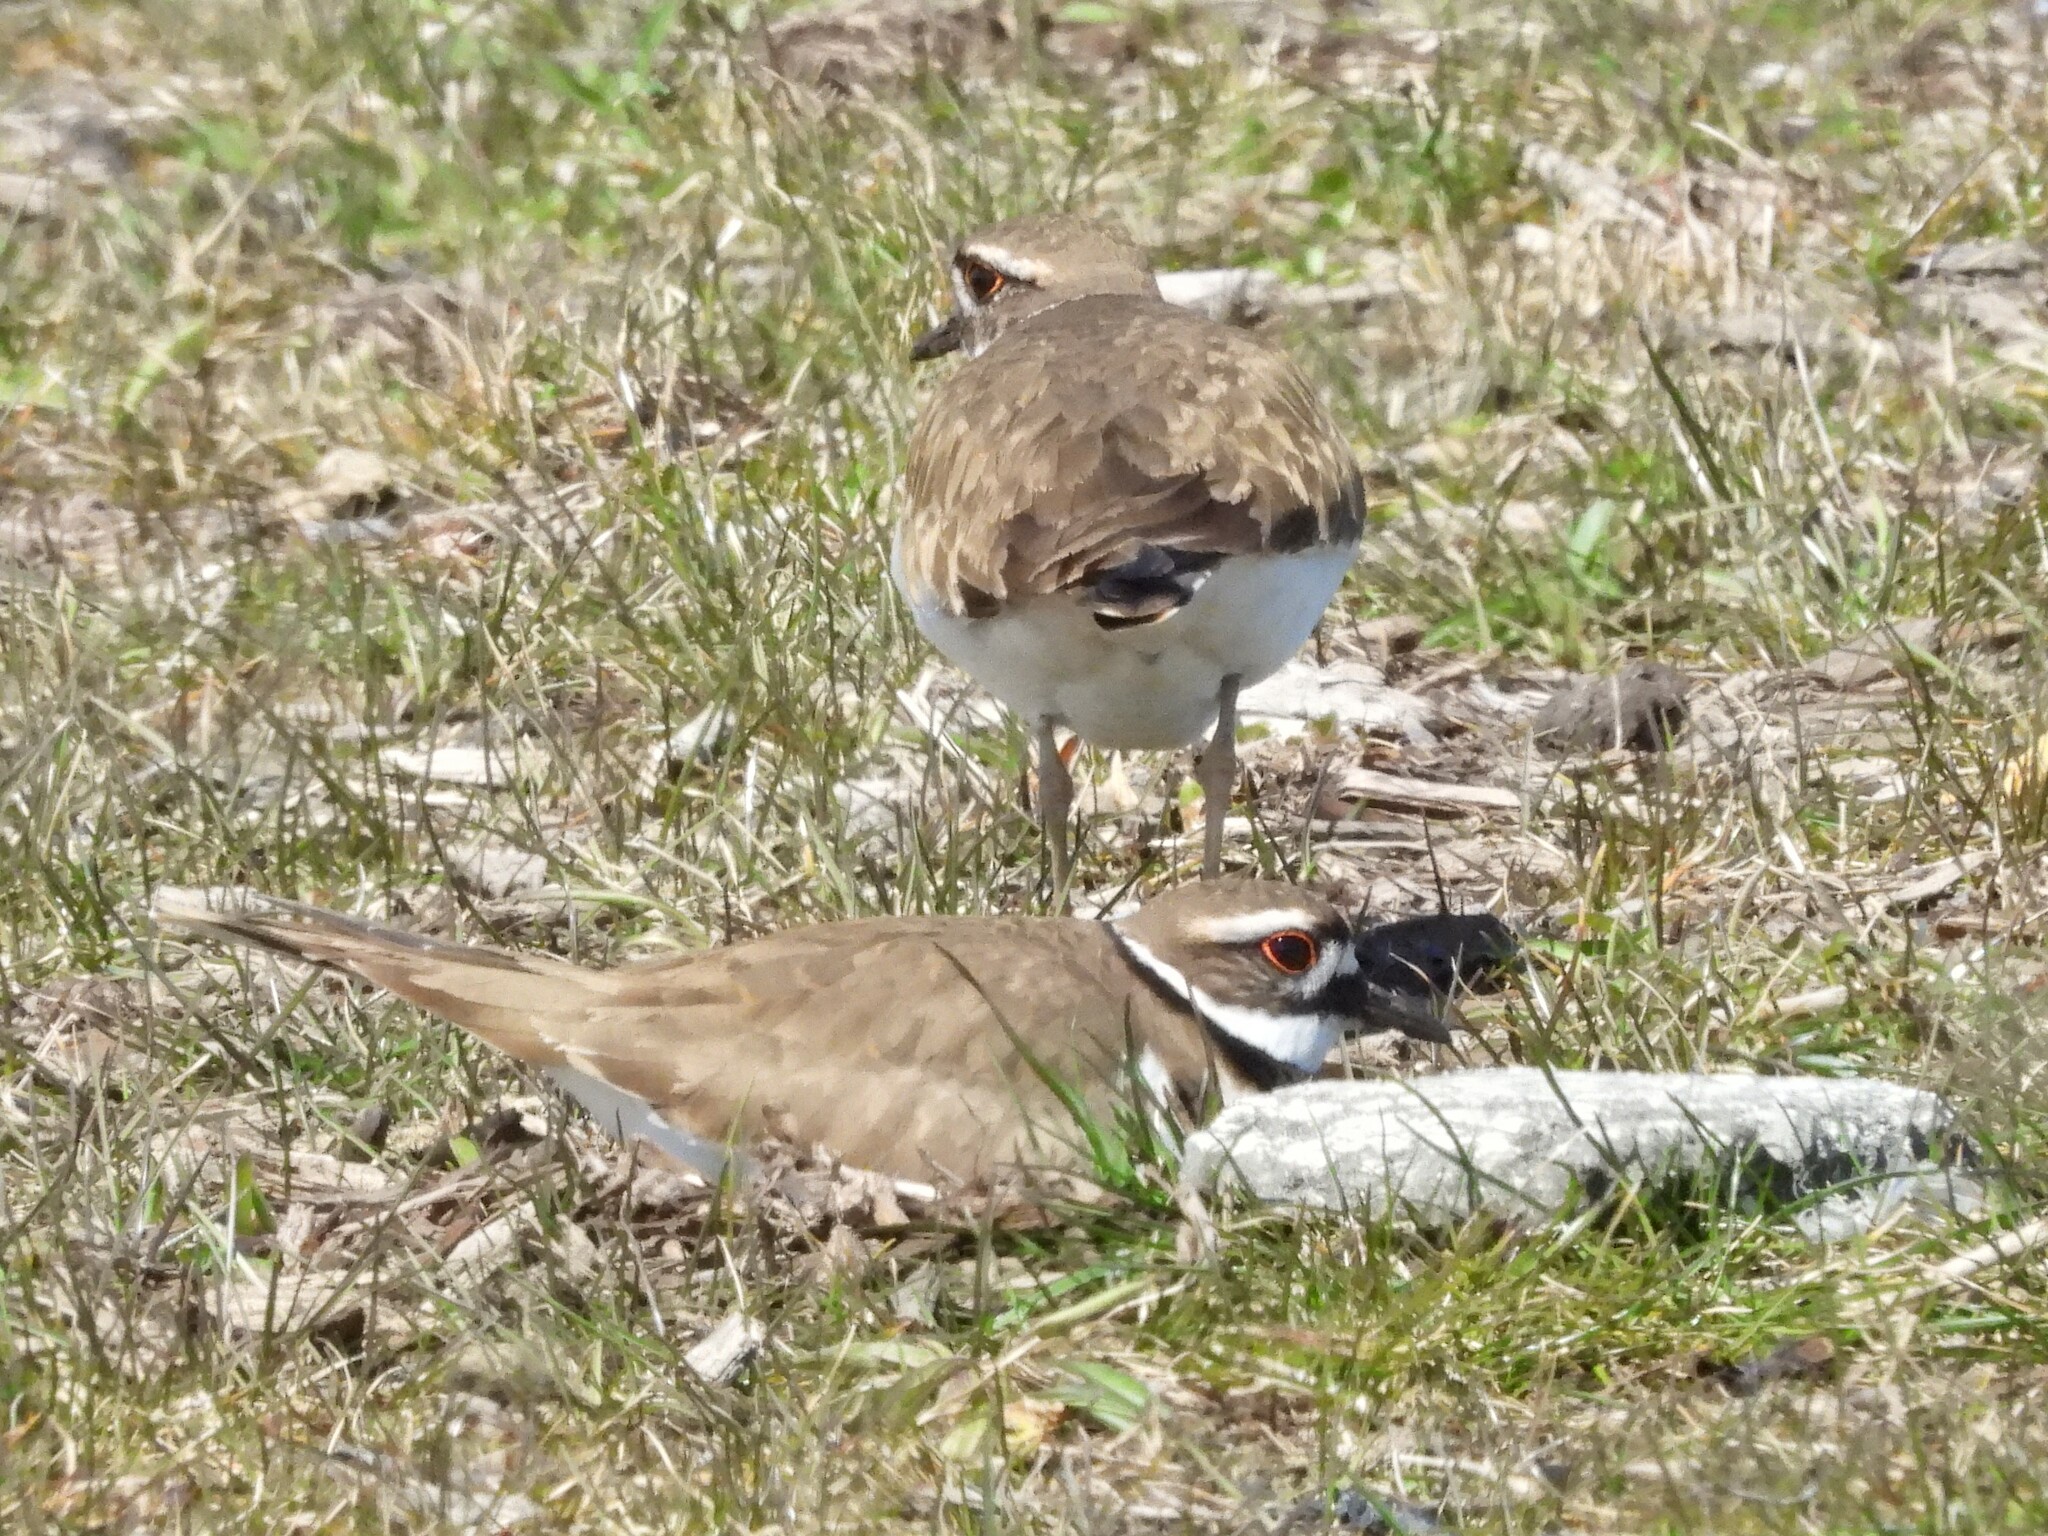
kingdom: Animalia
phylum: Chordata
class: Aves
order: Charadriiformes
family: Charadriidae
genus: Charadrius
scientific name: Charadrius vociferus
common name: Killdeer
